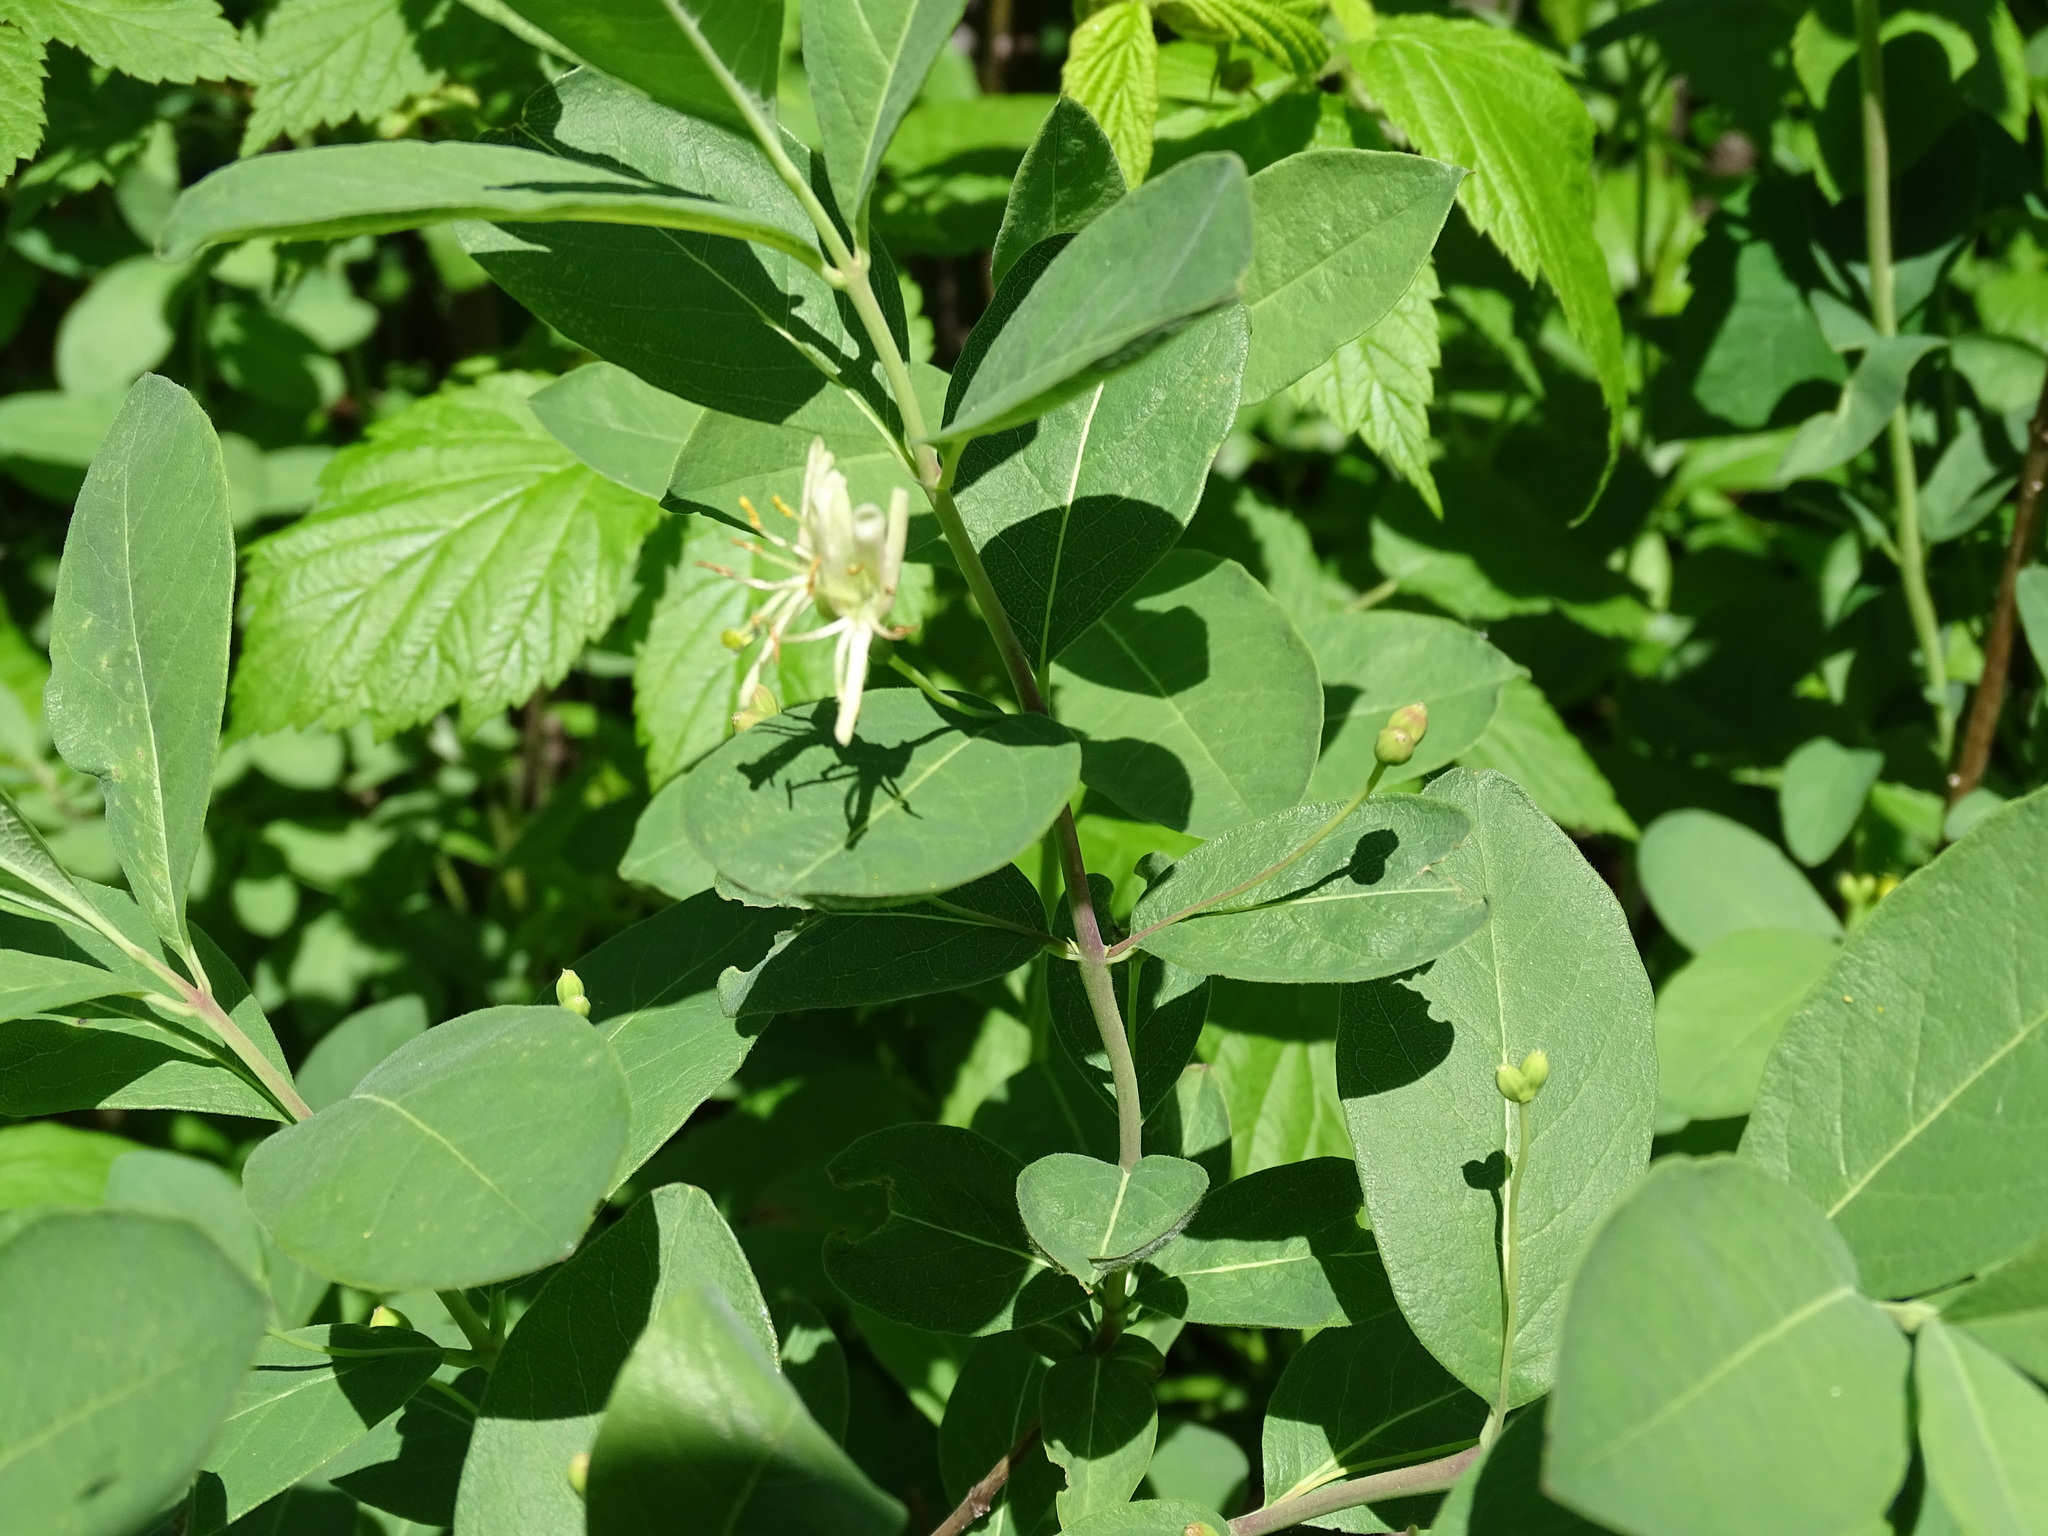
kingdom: Plantae
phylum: Tracheophyta
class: Magnoliopsida
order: Dipsacales
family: Caprifoliaceae
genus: Lonicera
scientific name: Lonicera oblongifolia
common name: Swamp fly honeysuckle
